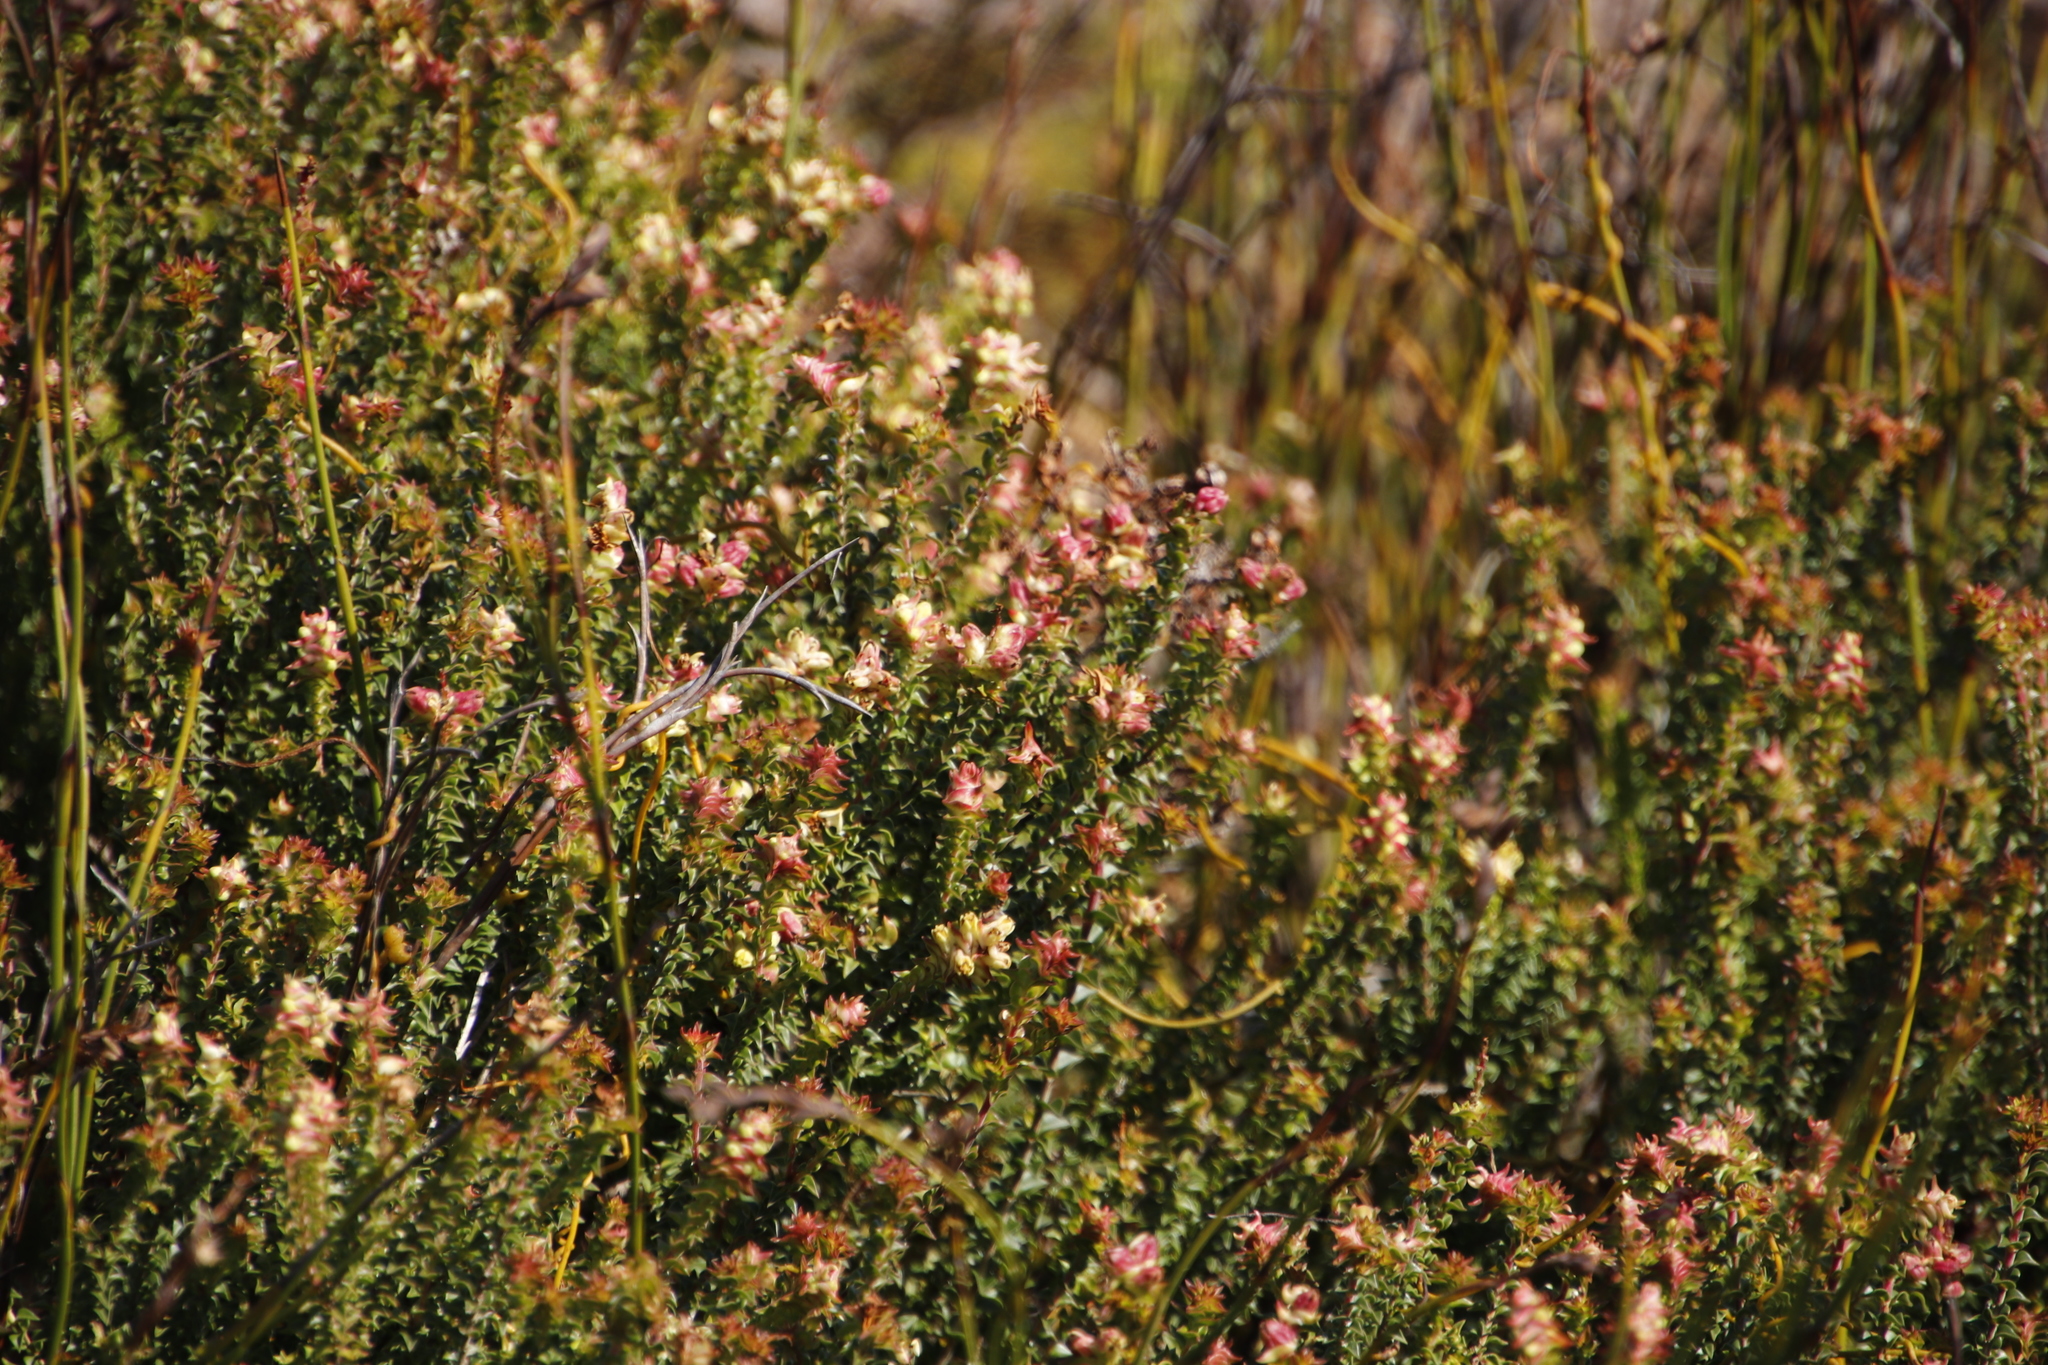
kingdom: Plantae
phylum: Tracheophyta
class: Magnoliopsida
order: Myrtales
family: Penaeaceae
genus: Penaea
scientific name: Penaea mucronata
